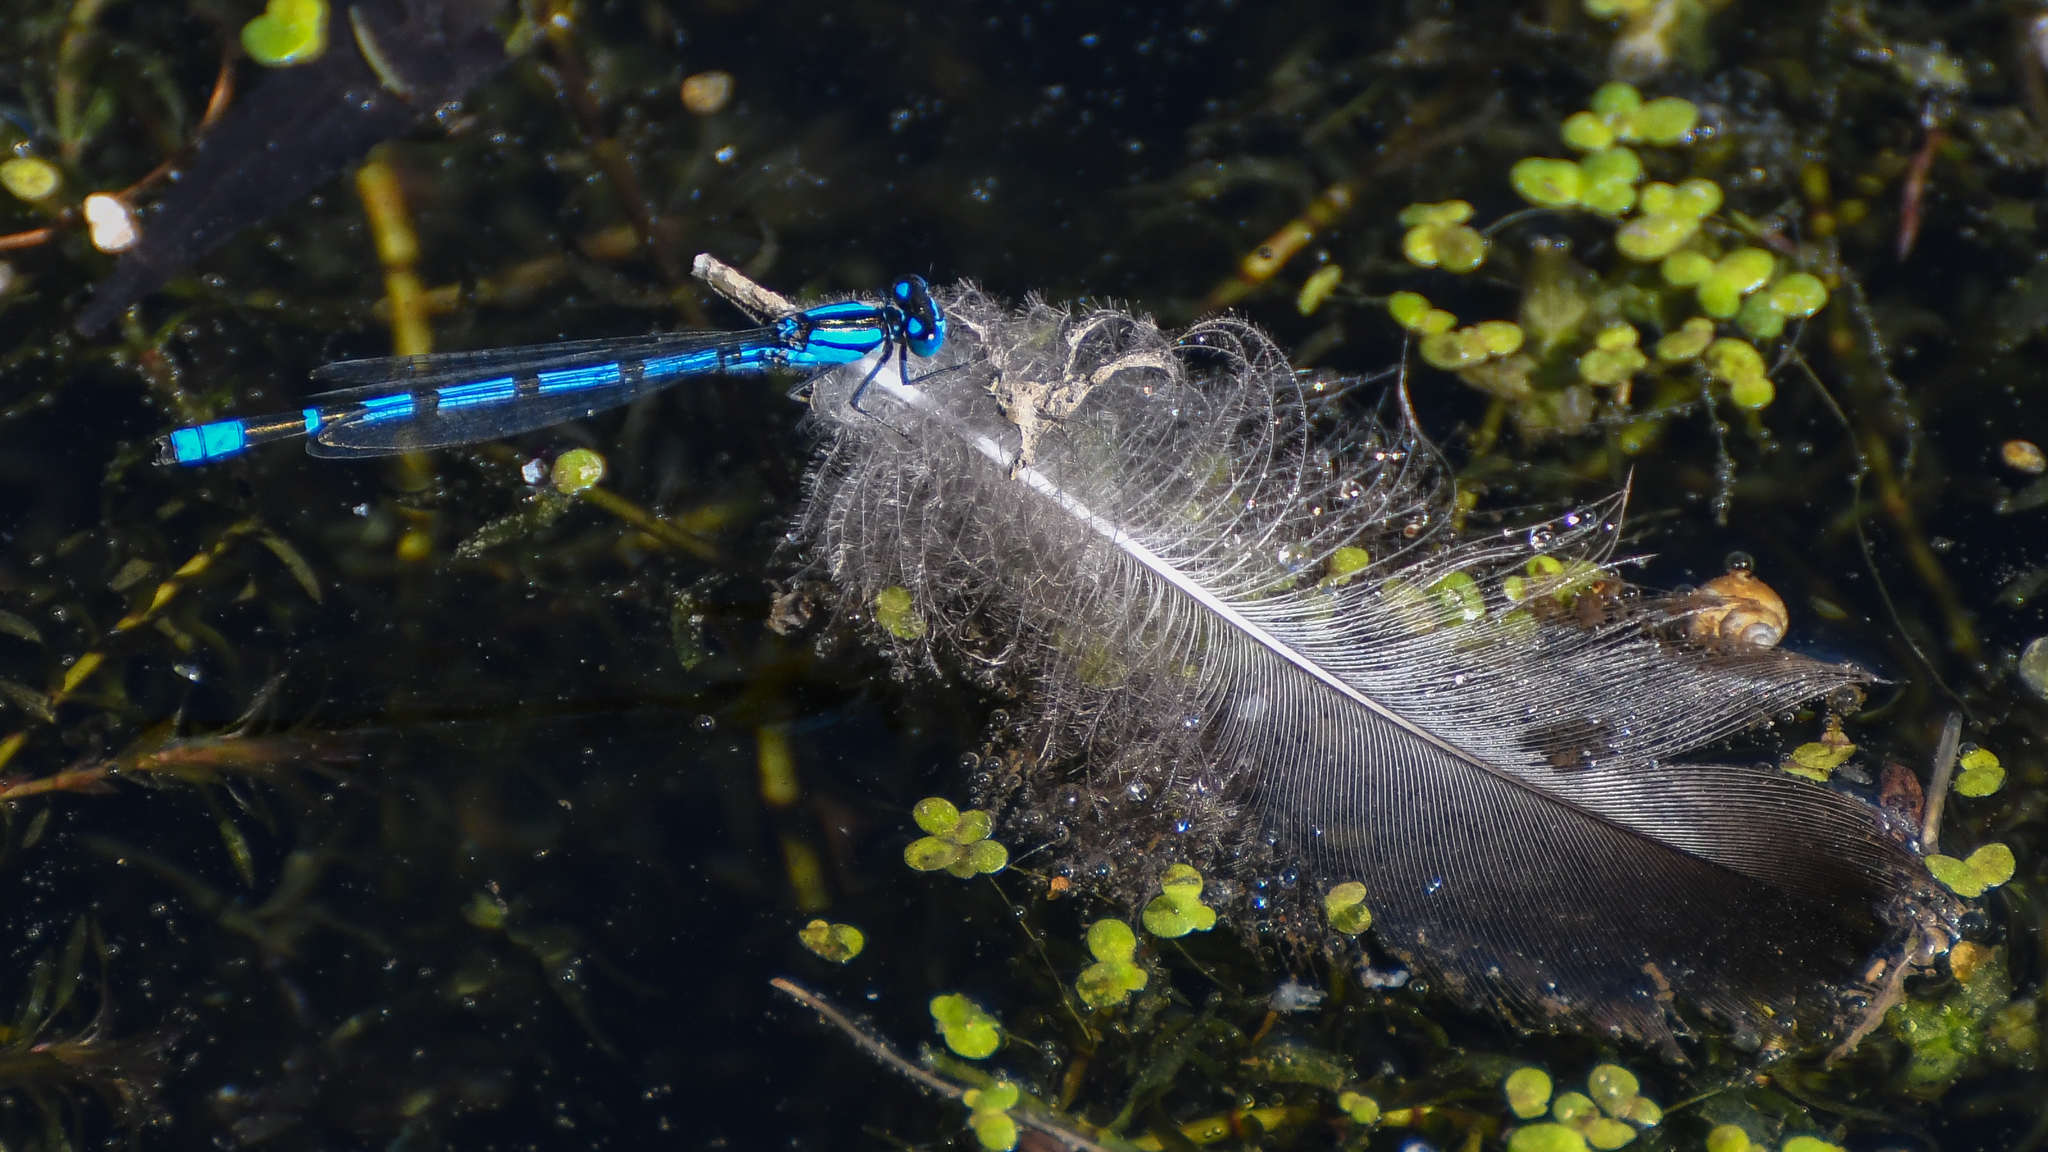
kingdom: Animalia
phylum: Arthropoda
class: Insecta
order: Odonata
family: Coenagrionidae
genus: Enallagma
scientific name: Enallagma cyathigerum
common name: Common blue damselfly
